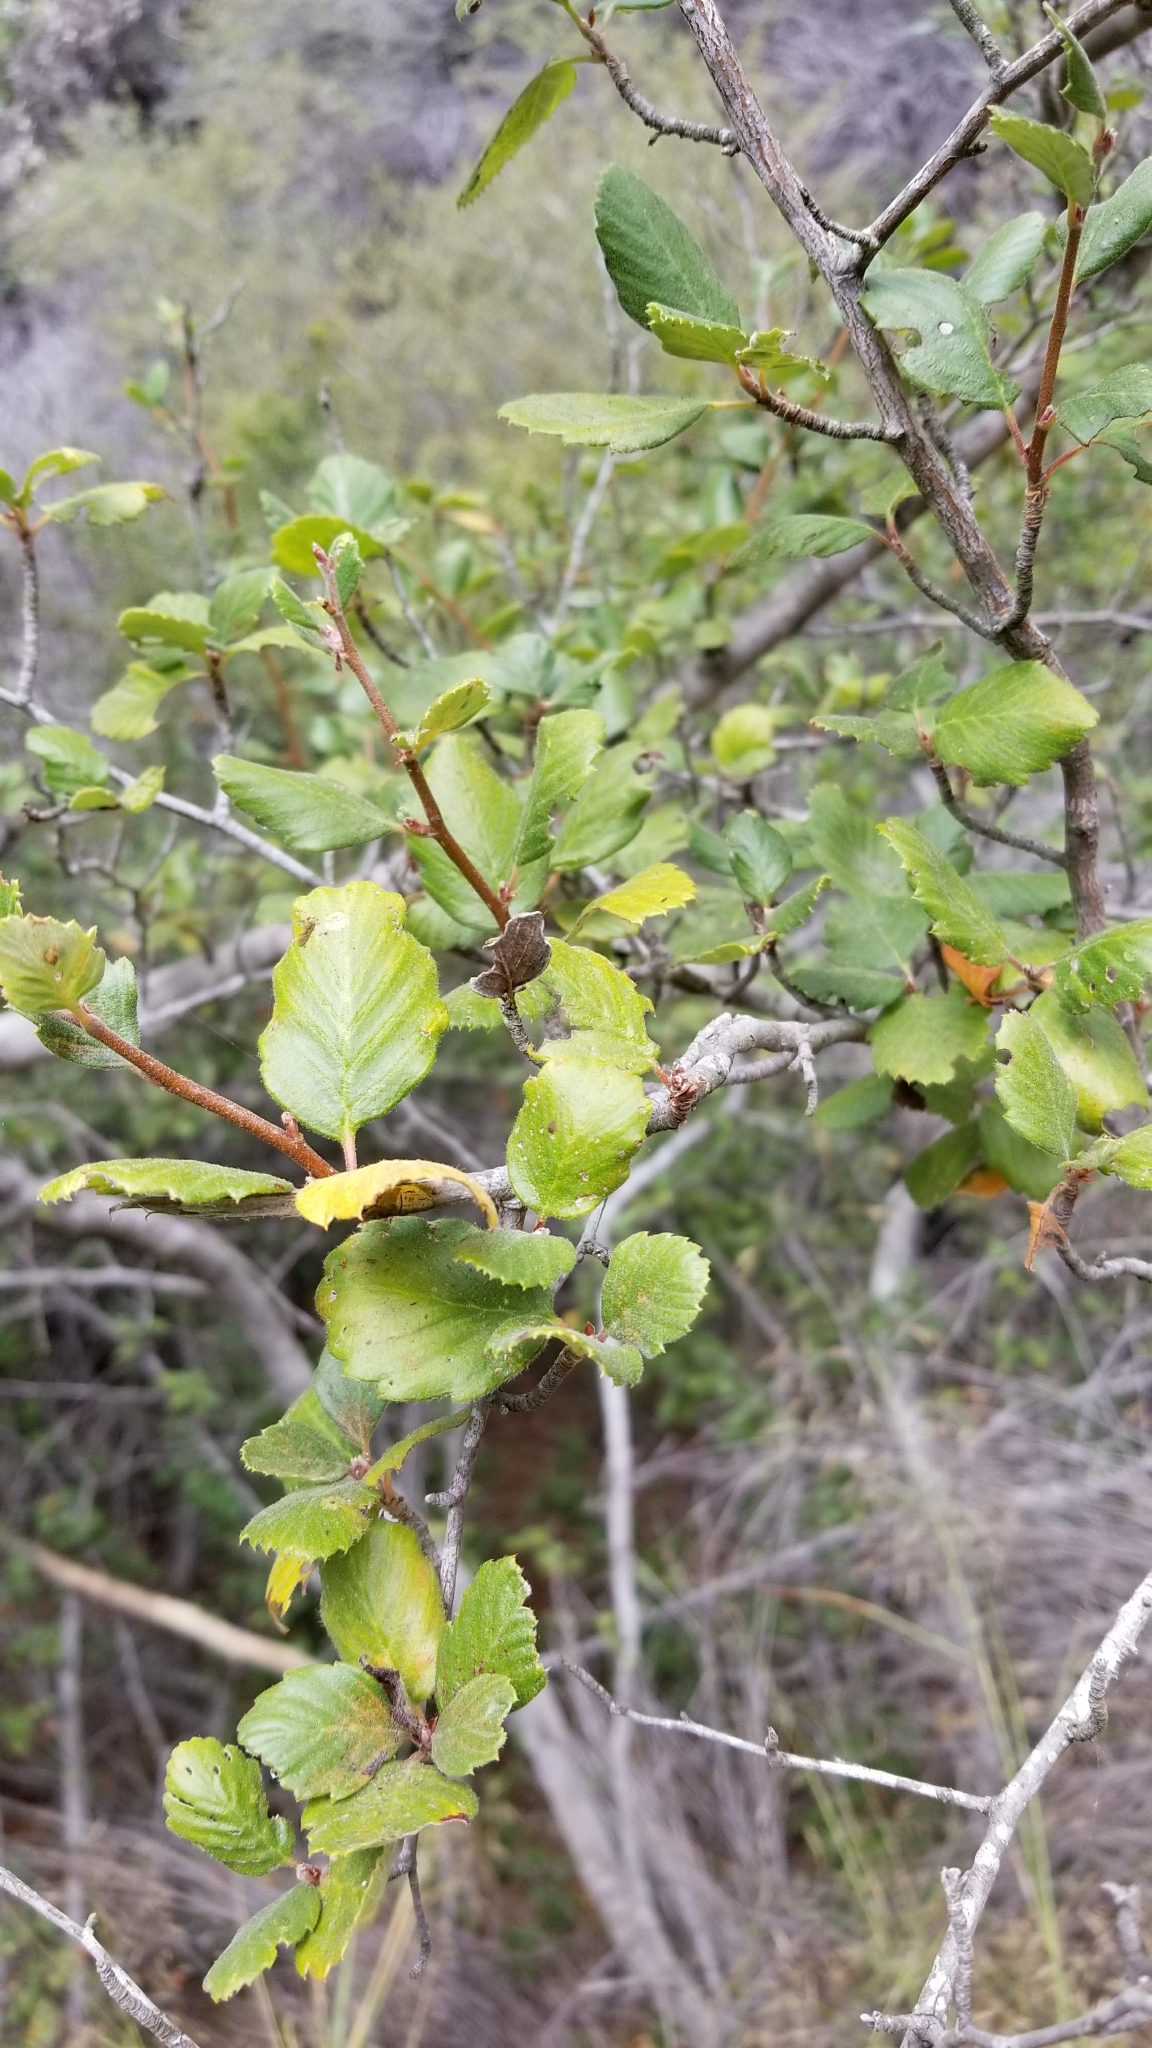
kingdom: Plantae
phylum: Tracheophyta
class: Magnoliopsida
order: Rosales
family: Rosaceae
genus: Cercocarpus
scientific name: Cercocarpus betuloides
